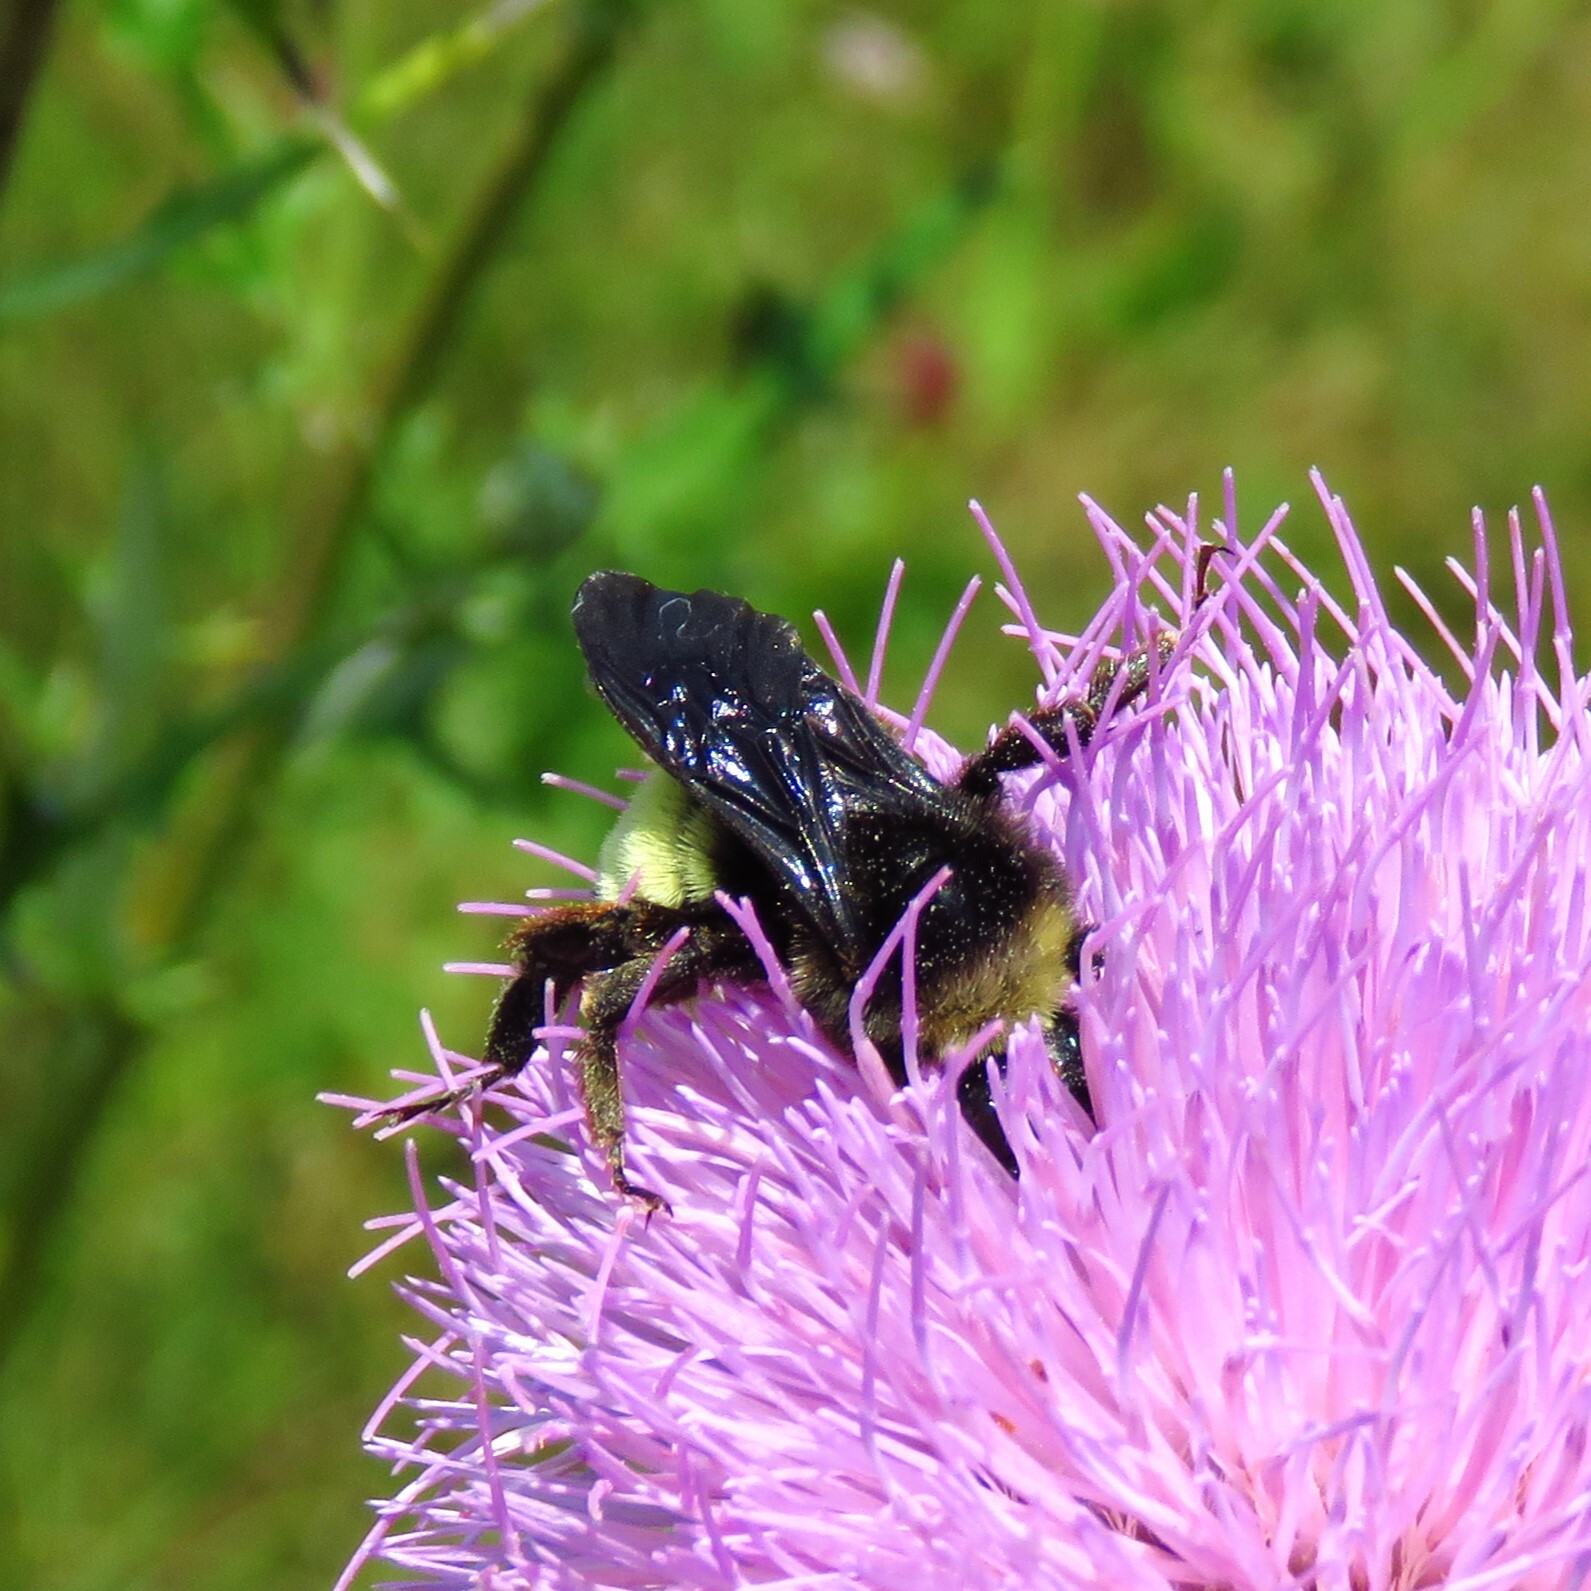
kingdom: Animalia
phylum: Arthropoda
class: Insecta
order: Hymenoptera
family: Apidae
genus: Bombus
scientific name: Bombus pensylvanicus
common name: Bumble bee
